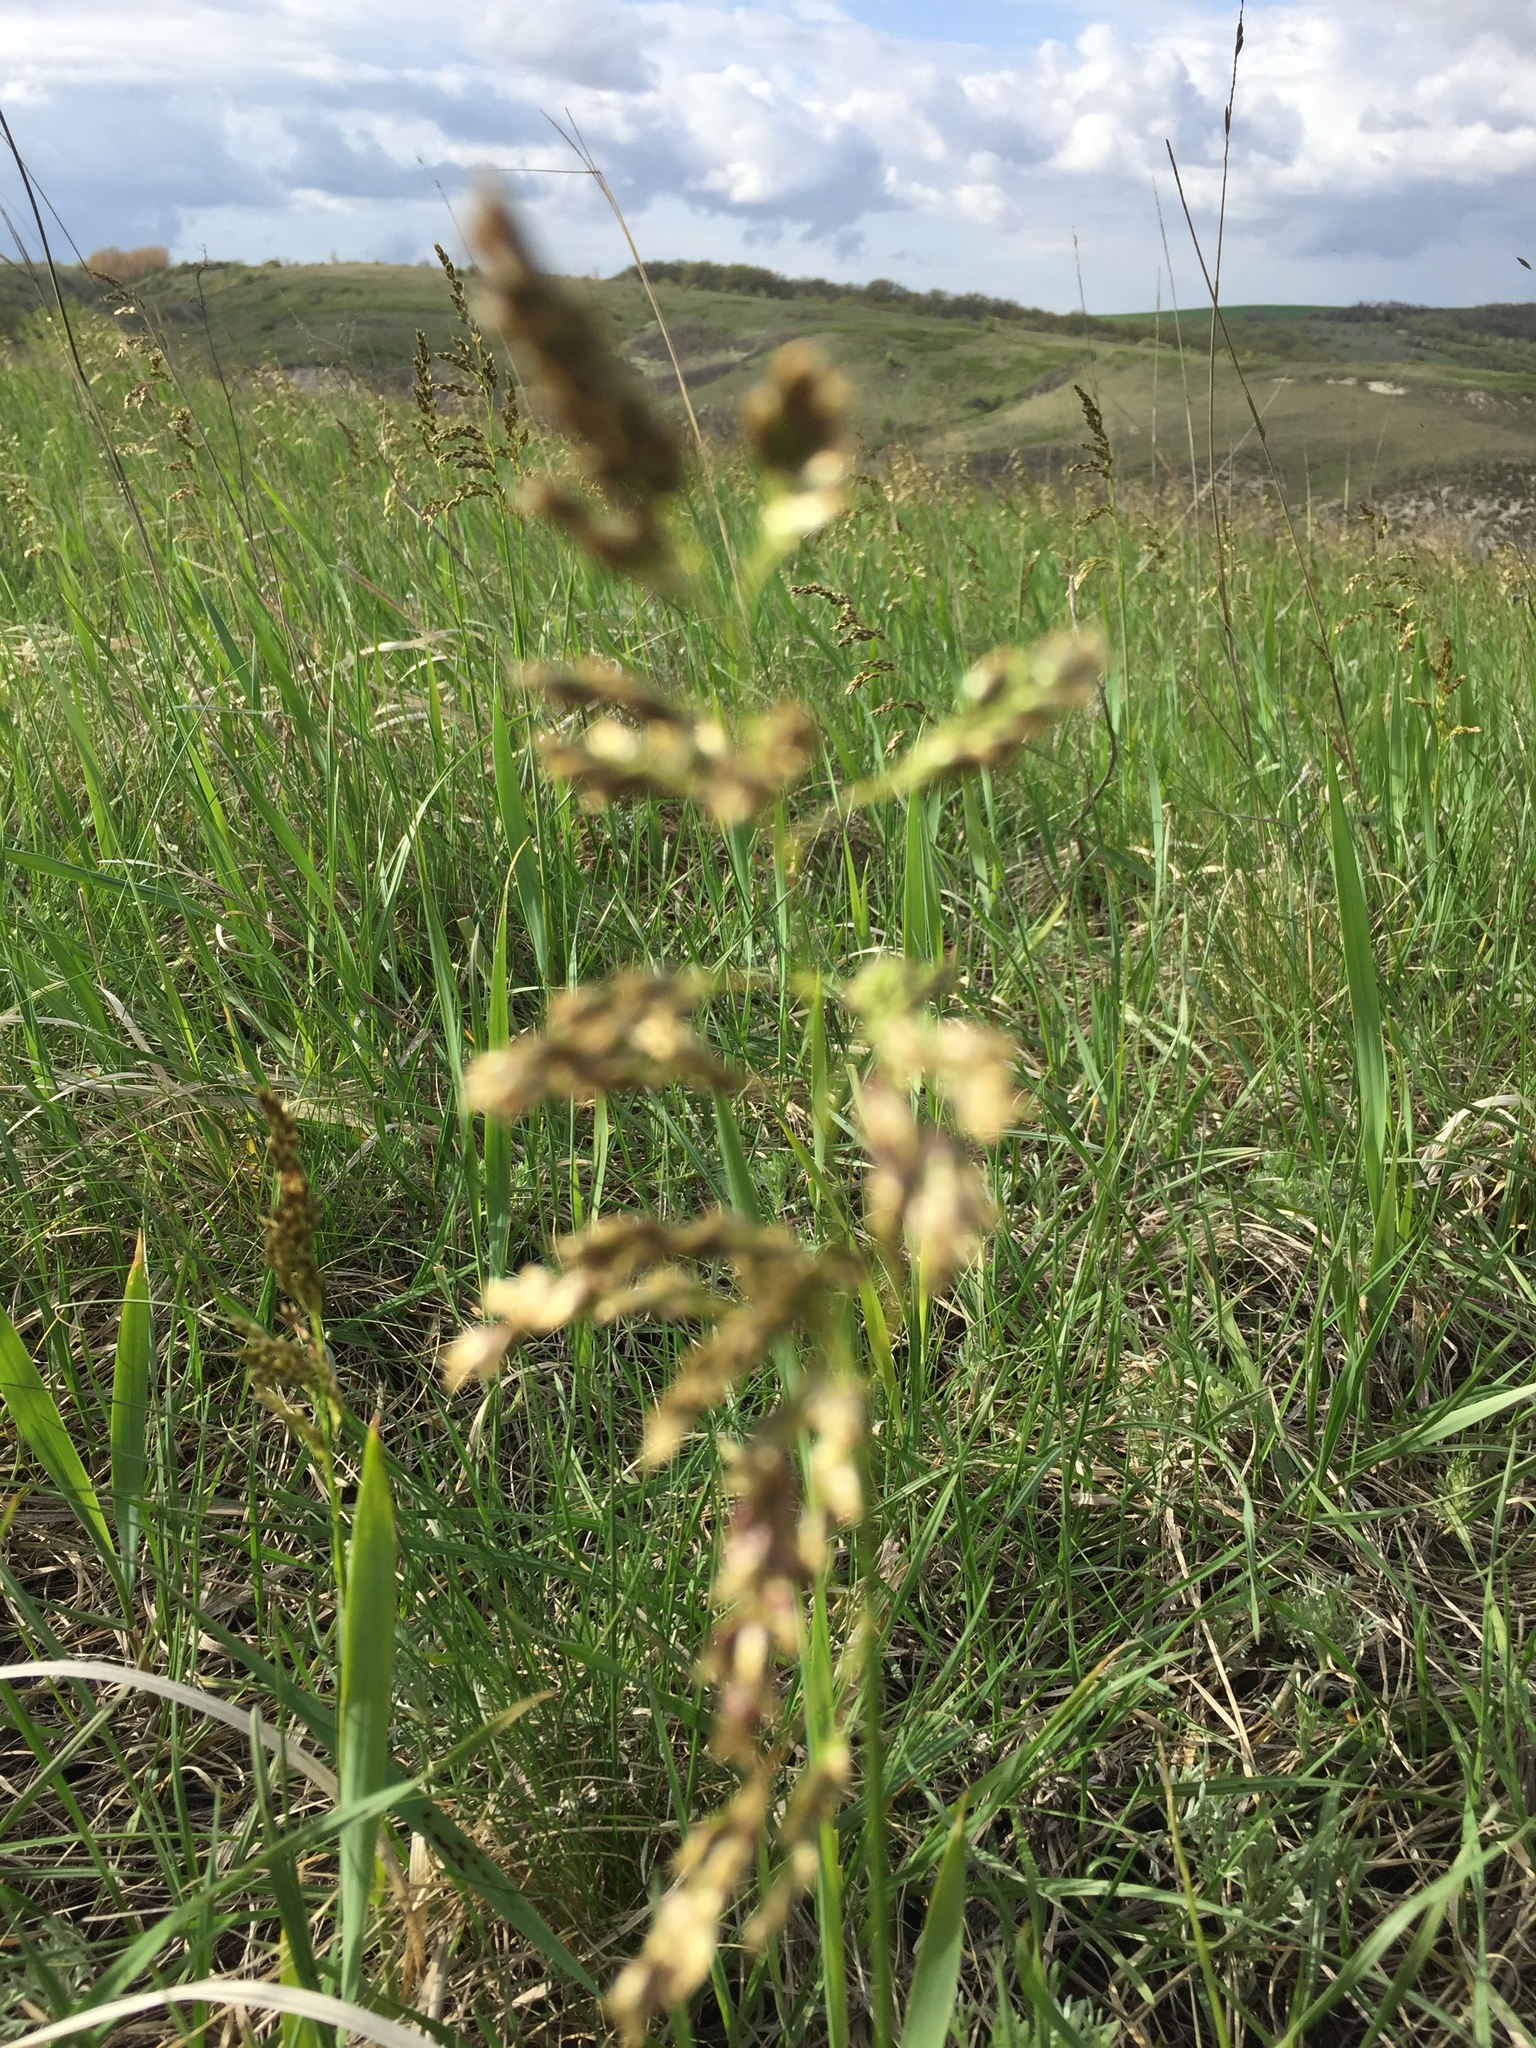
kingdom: Plantae
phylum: Tracheophyta
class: Liliopsida
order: Poales
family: Poaceae
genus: Anthoxanthum
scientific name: Anthoxanthum repens
